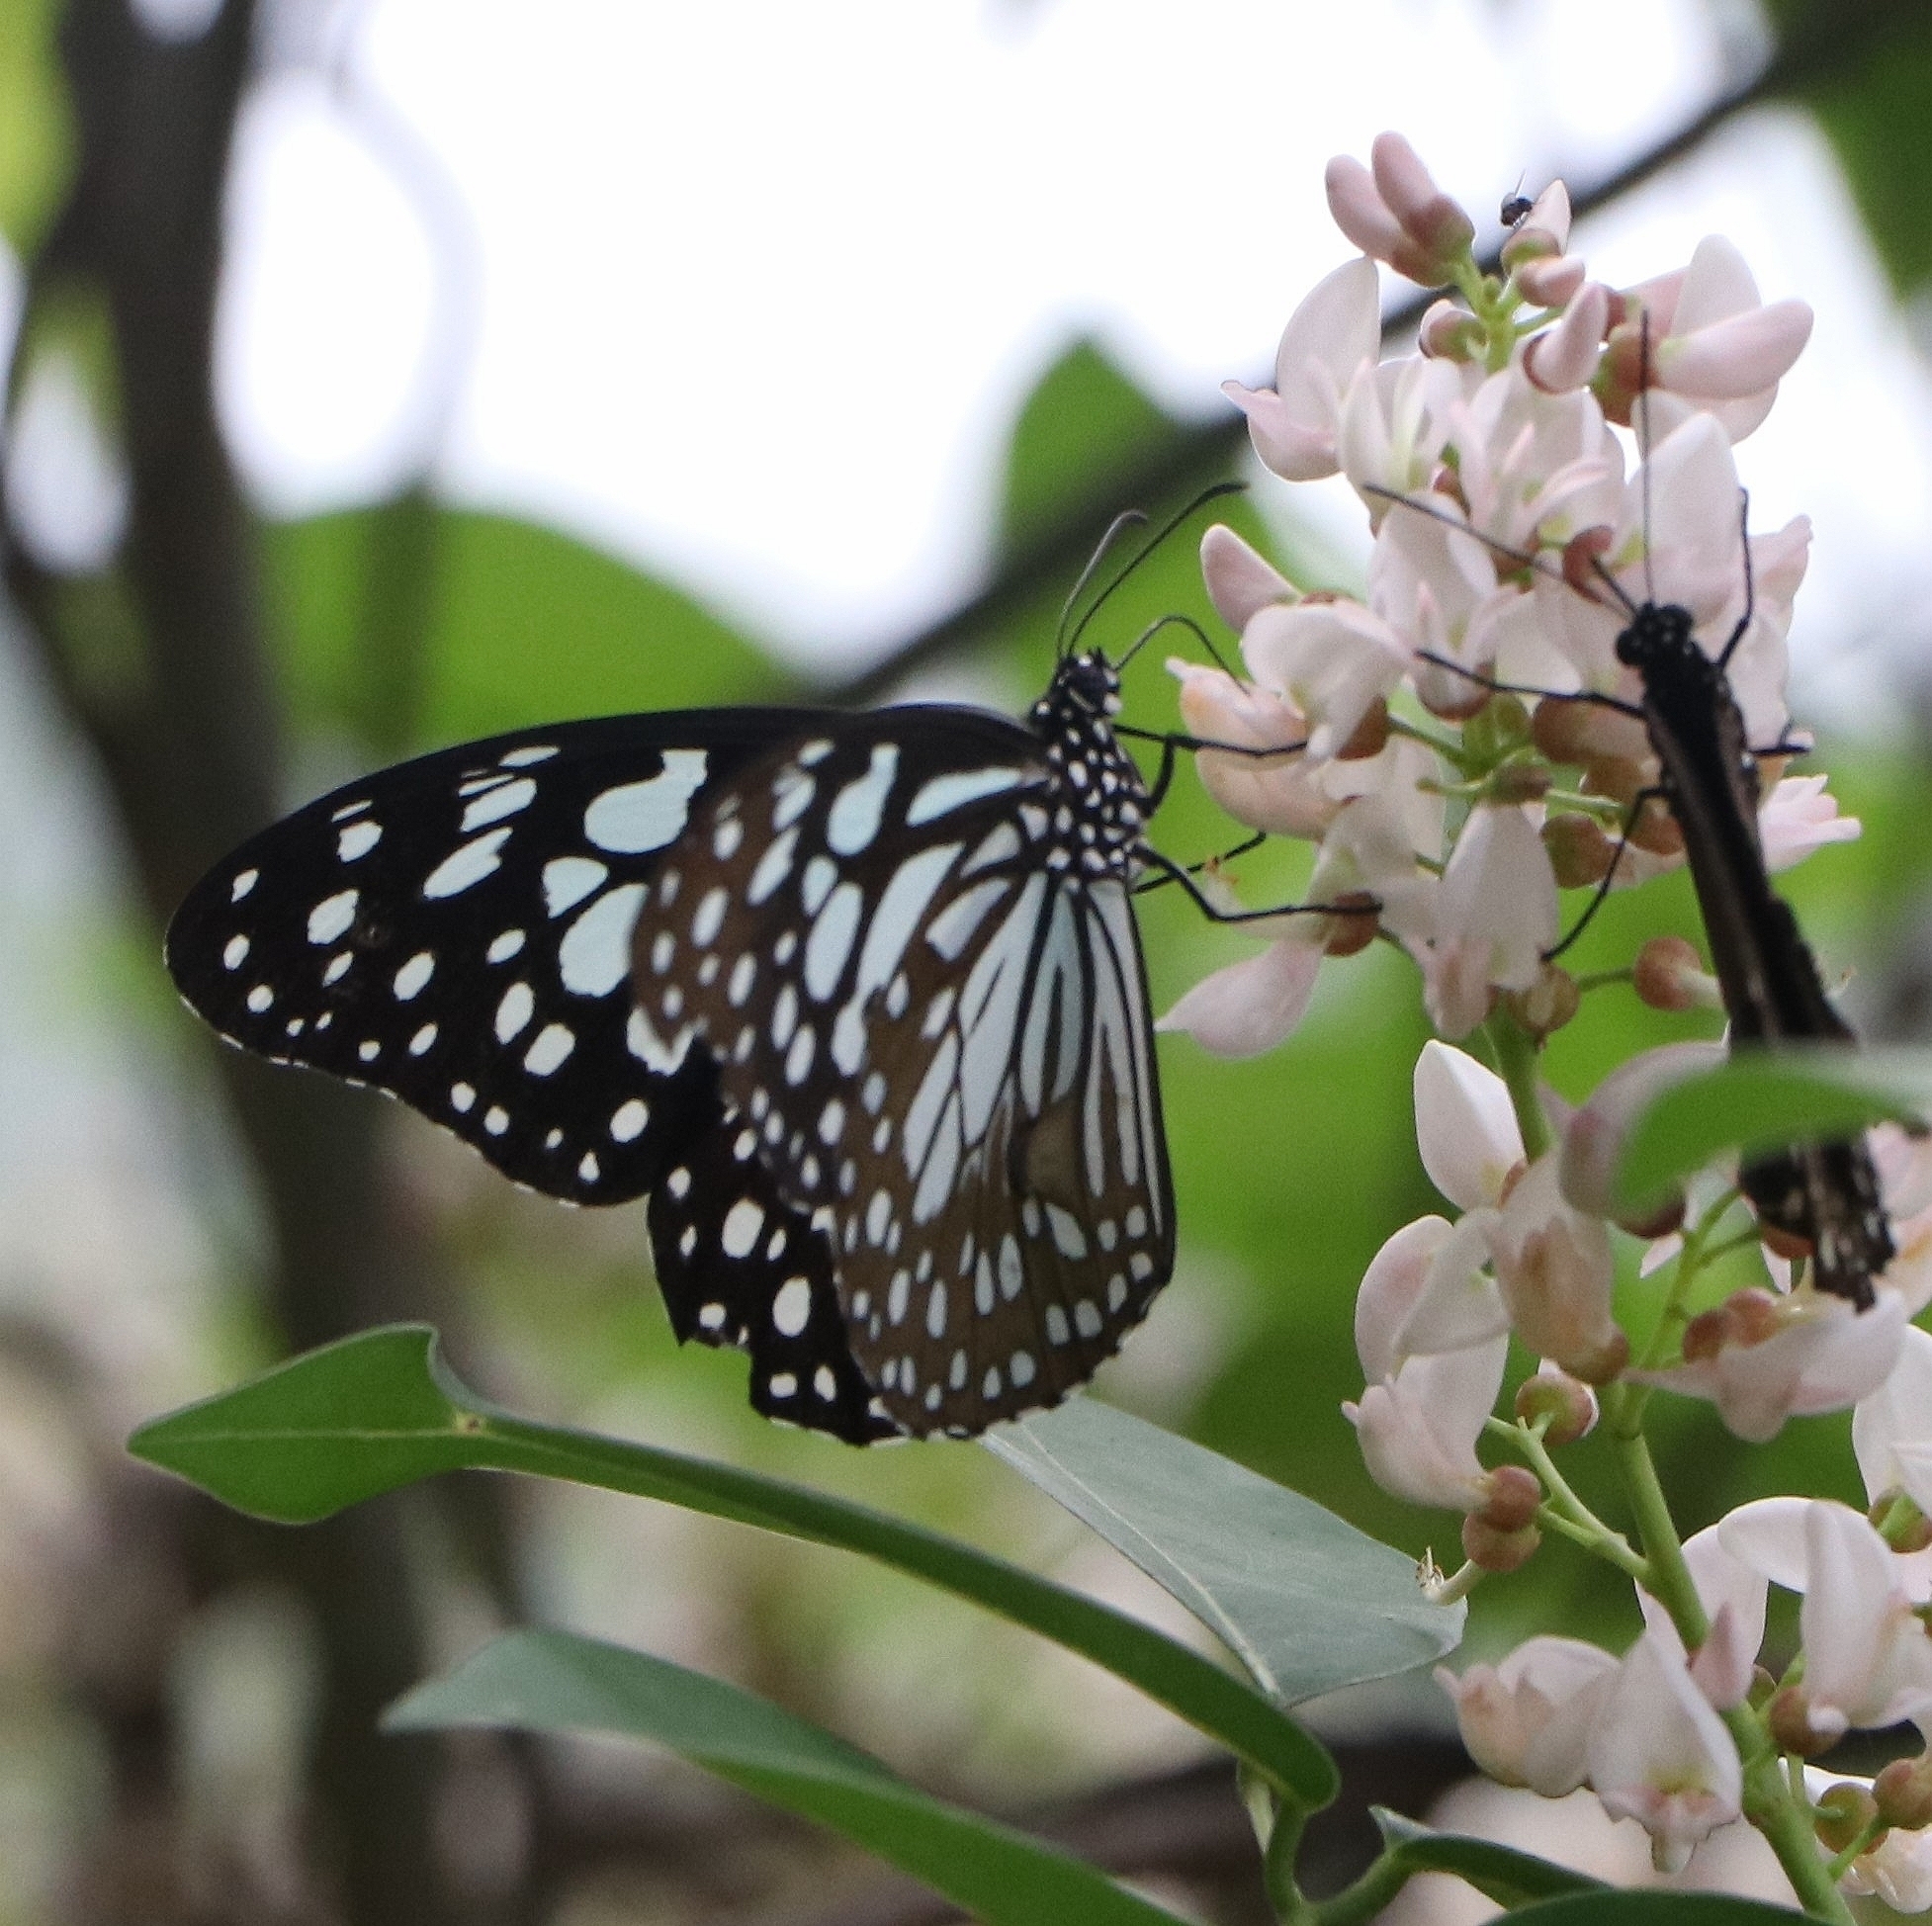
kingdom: Animalia
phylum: Arthropoda
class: Insecta
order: Lepidoptera
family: Nymphalidae
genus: Tirumala
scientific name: Tirumala limniace
